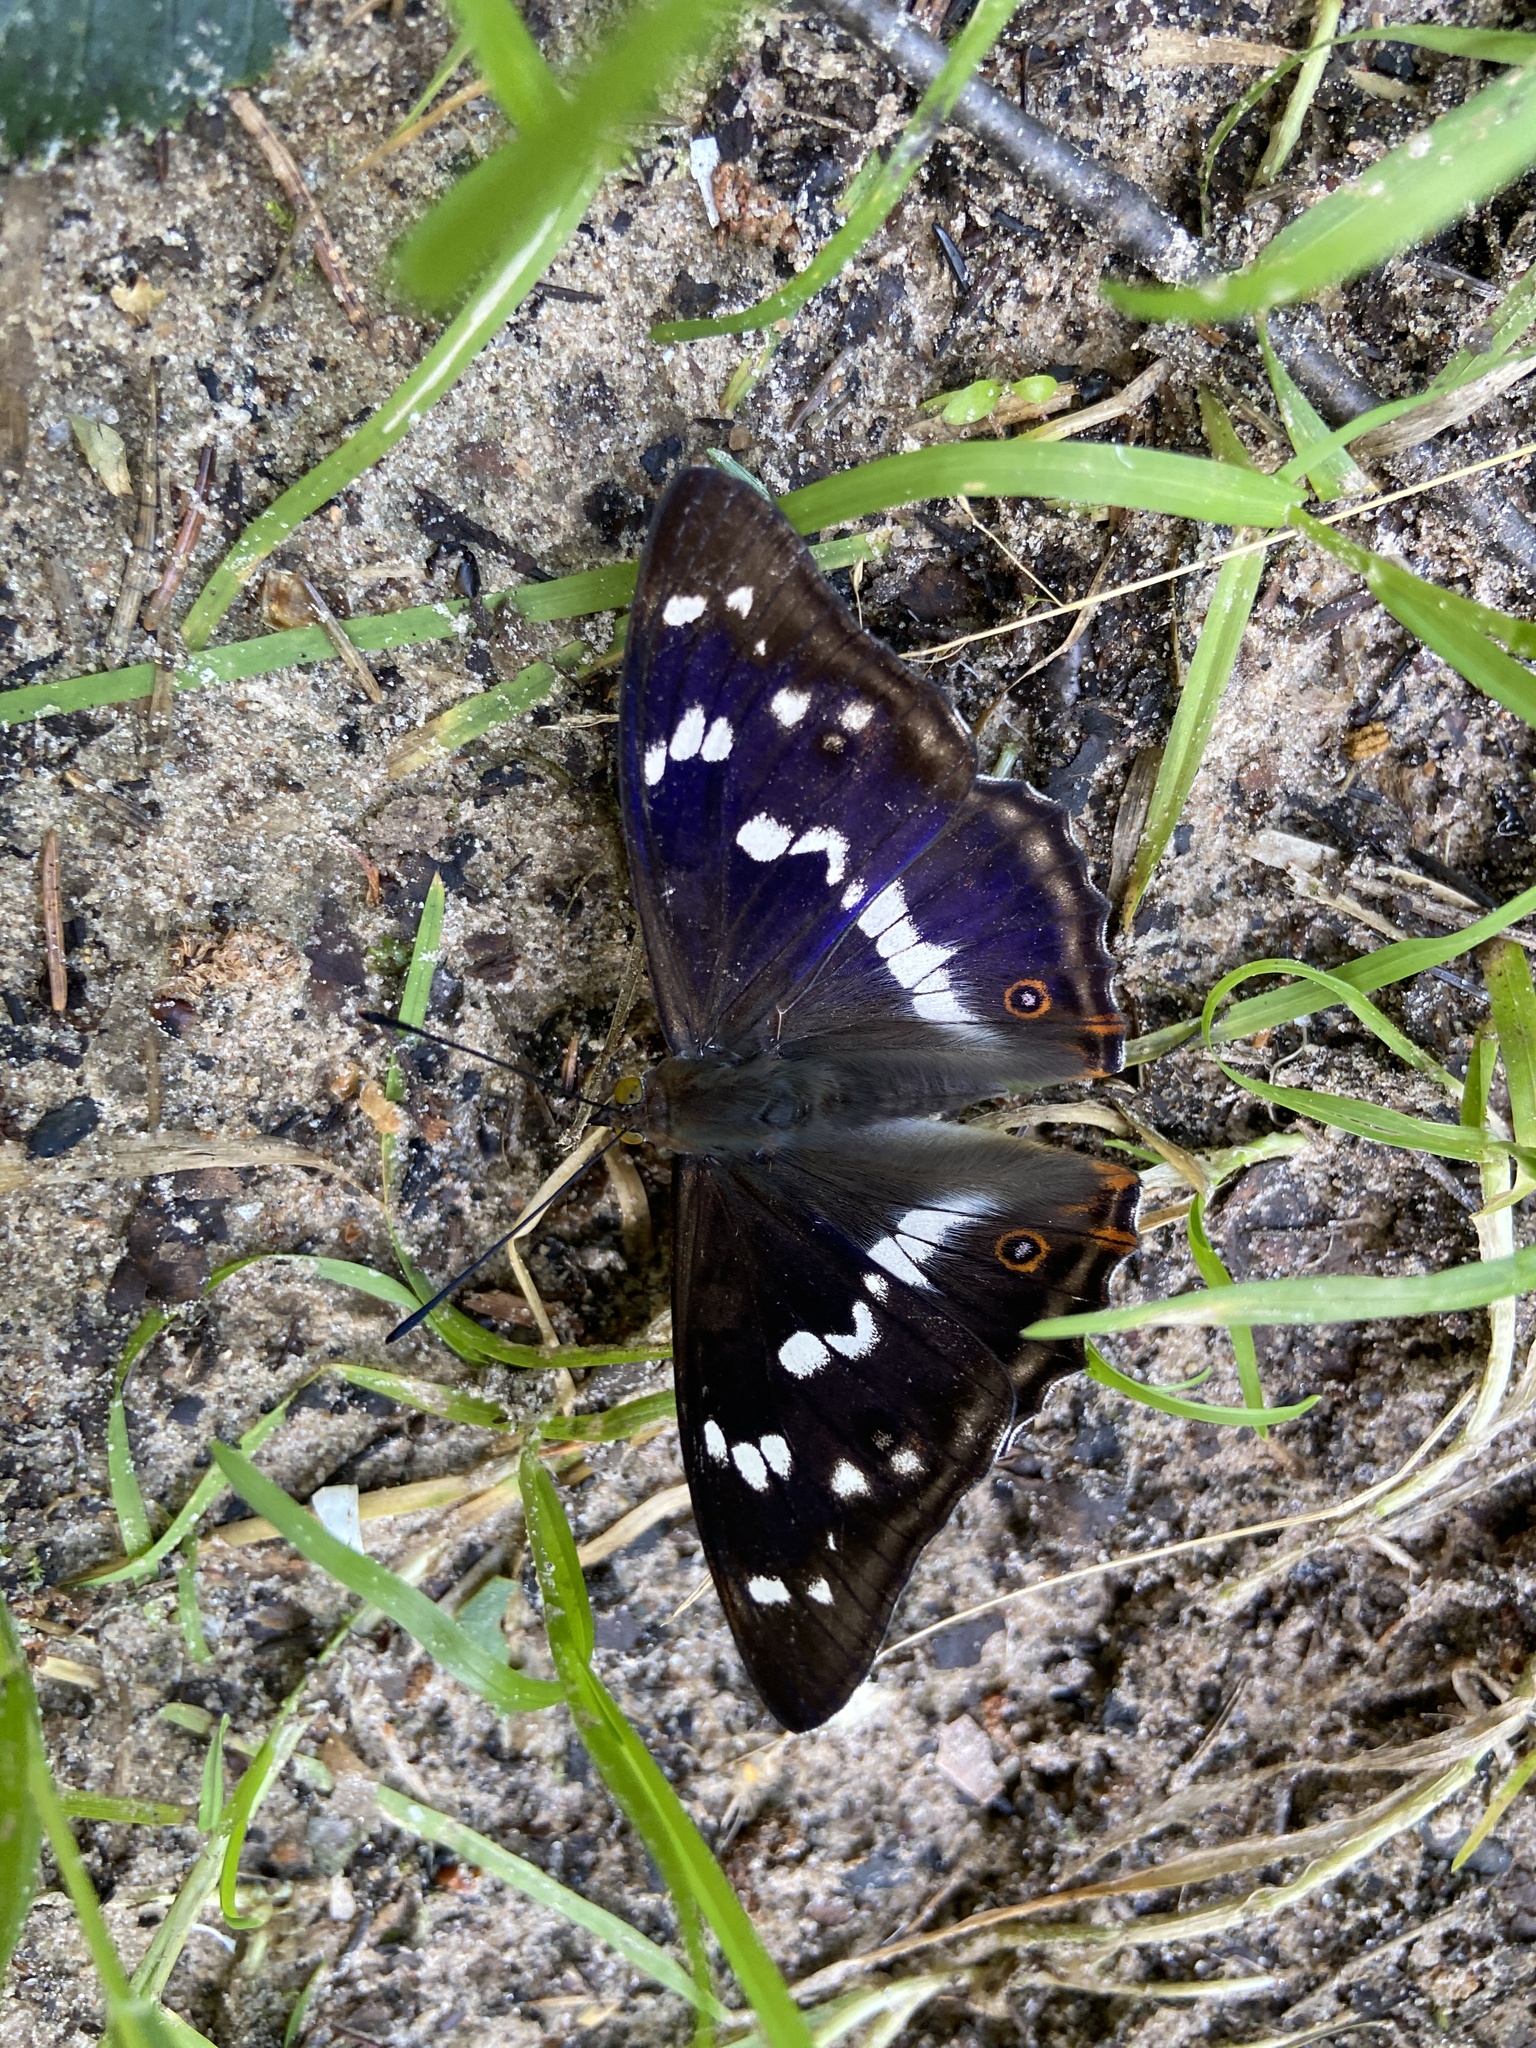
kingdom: Animalia
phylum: Arthropoda
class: Insecta
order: Lepidoptera
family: Nymphalidae
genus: Apatura
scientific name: Apatura iris
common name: Purple emperor
